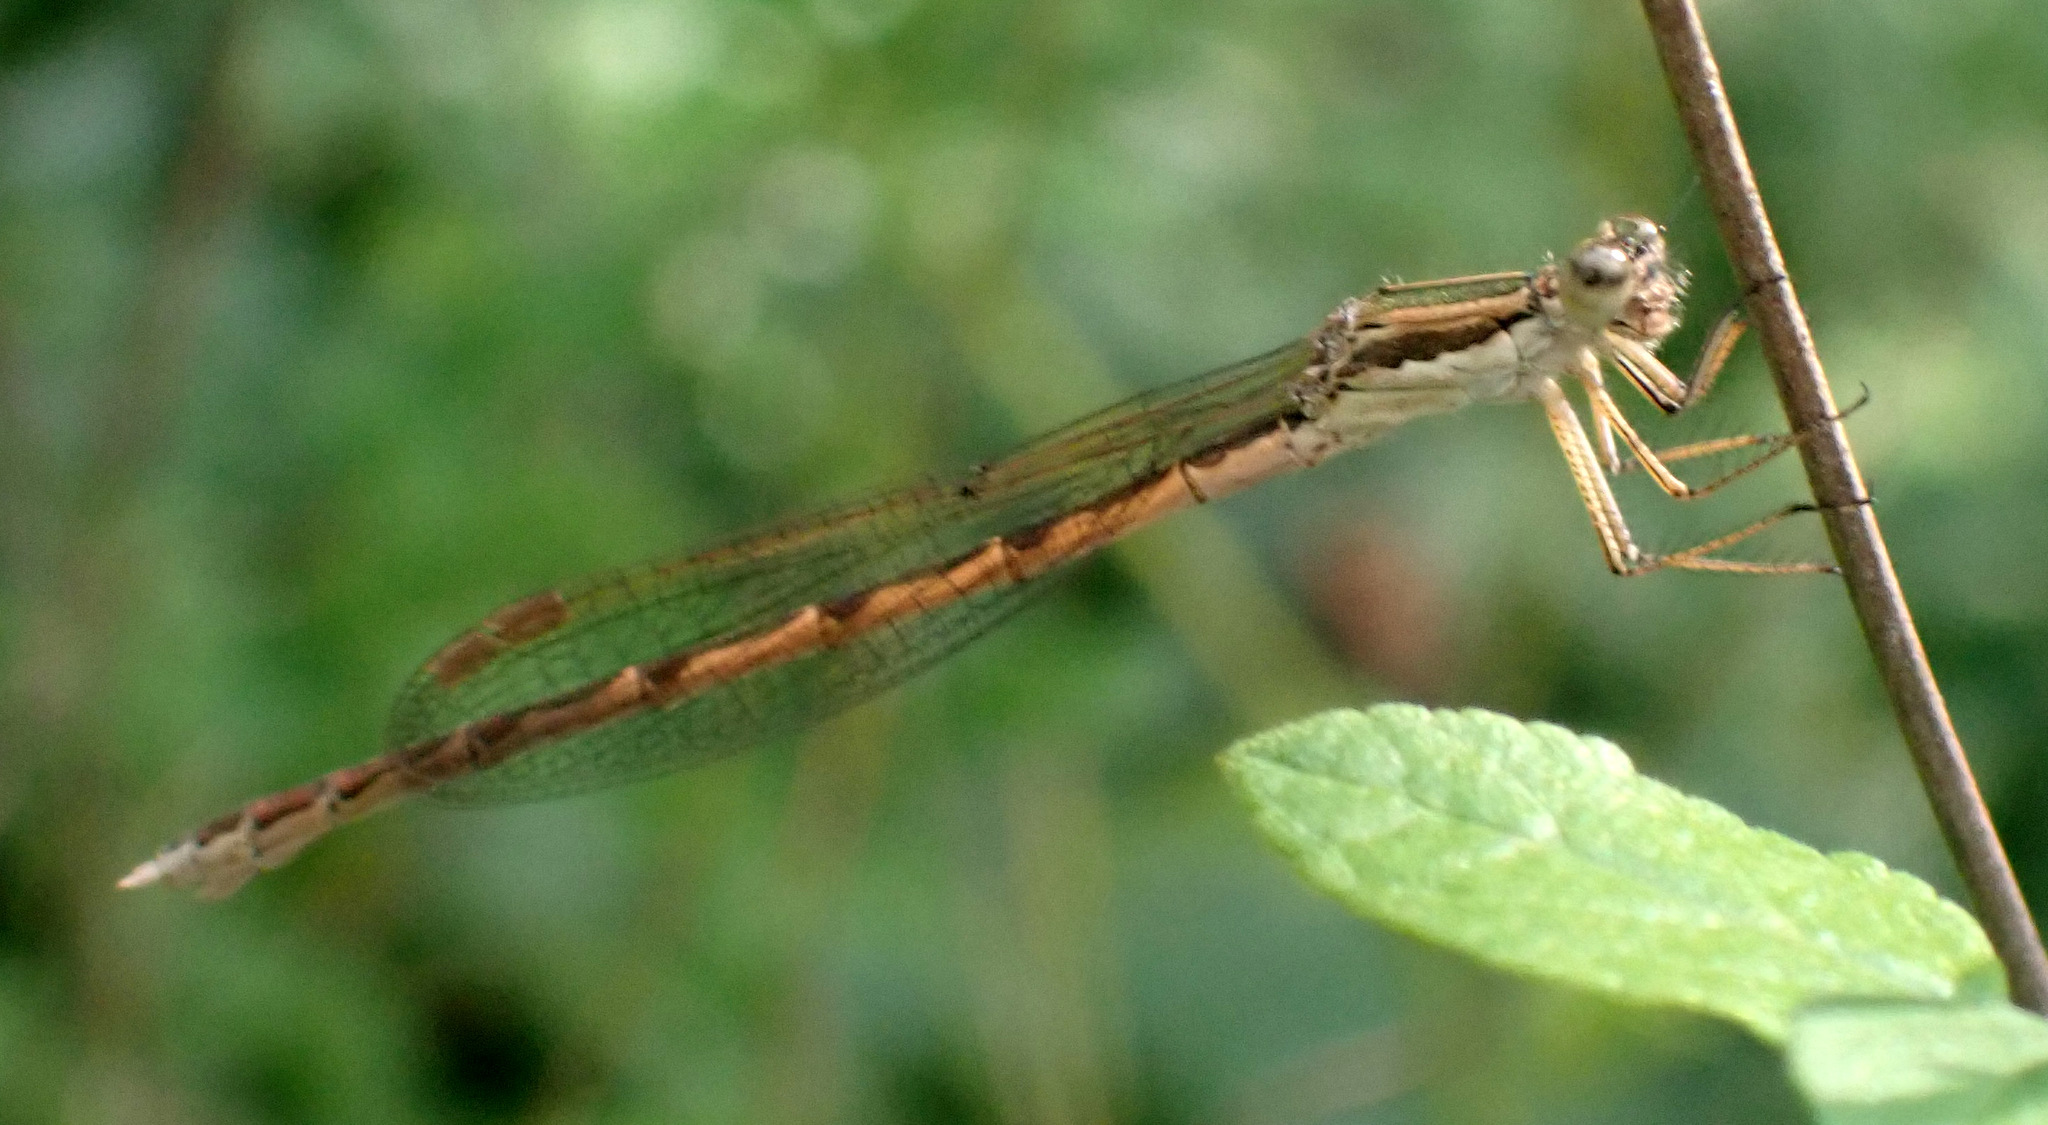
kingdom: Animalia
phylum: Arthropoda
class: Insecta
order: Odonata
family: Lestidae
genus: Sympecma
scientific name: Sympecma fusca
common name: Common winter damsel
